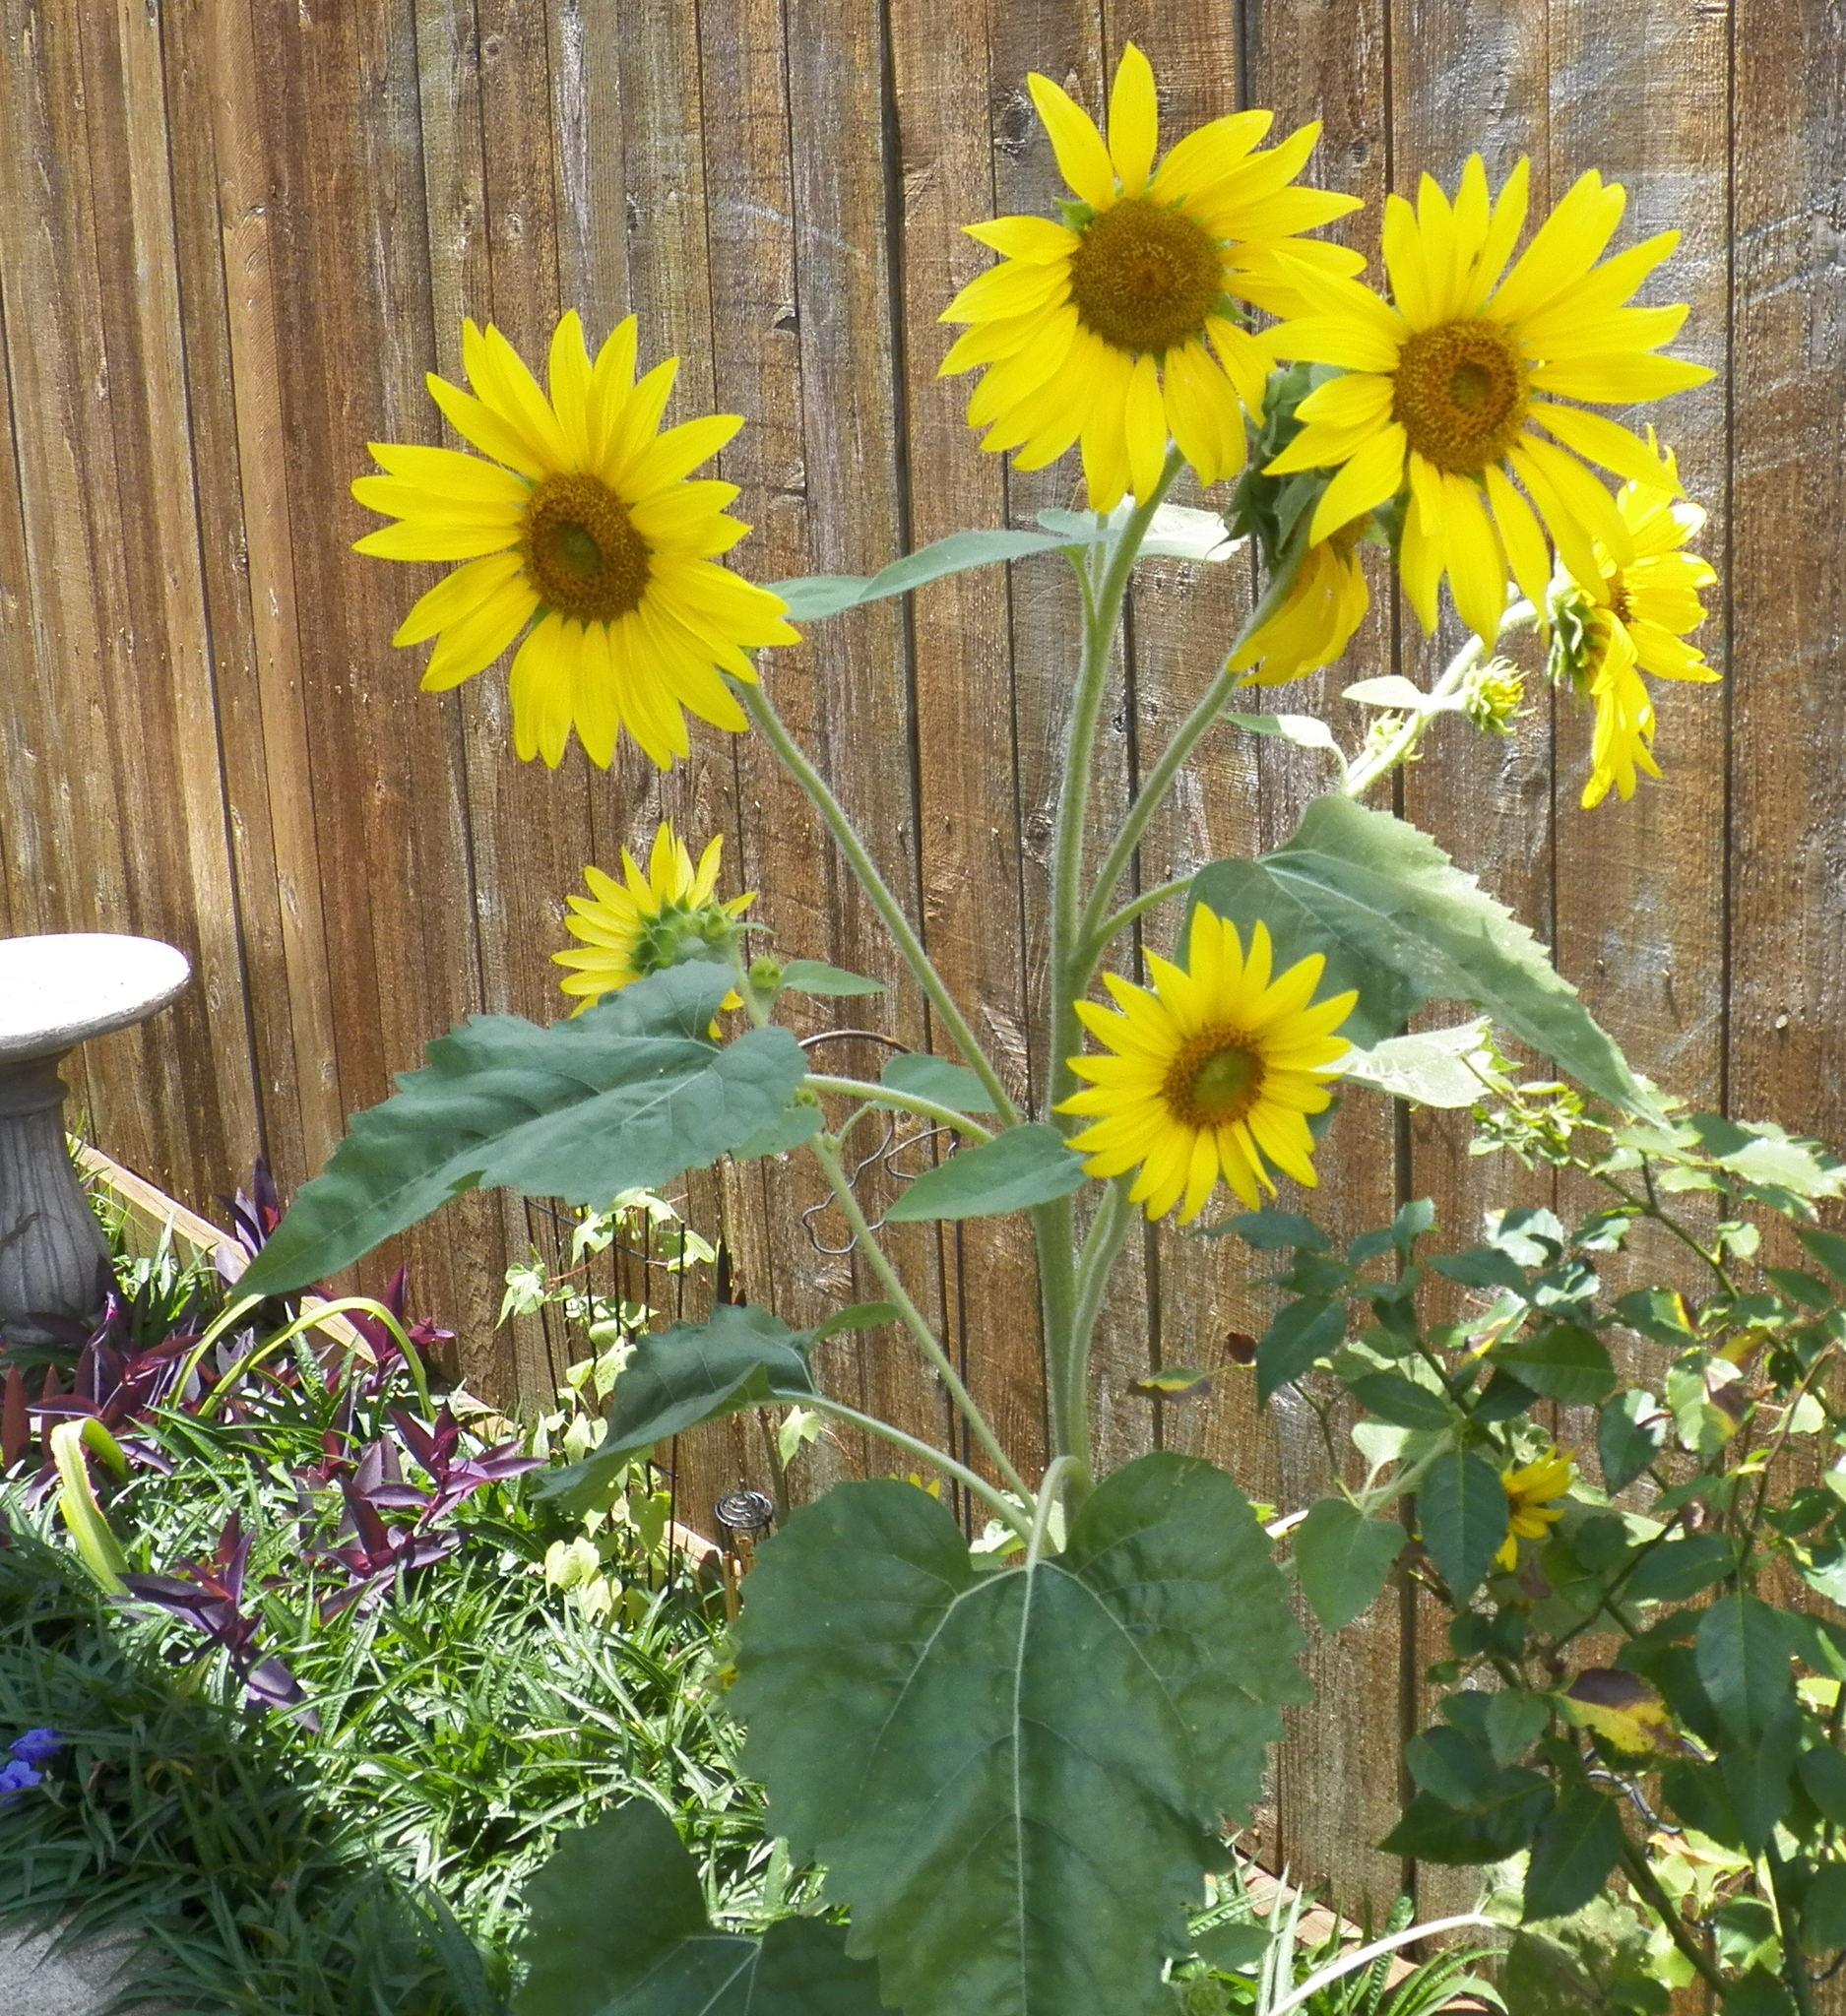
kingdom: Plantae
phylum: Tracheophyta
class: Magnoliopsida
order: Asterales
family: Asteraceae
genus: Helianthus
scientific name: Helianthus annuus
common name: Sunflower
